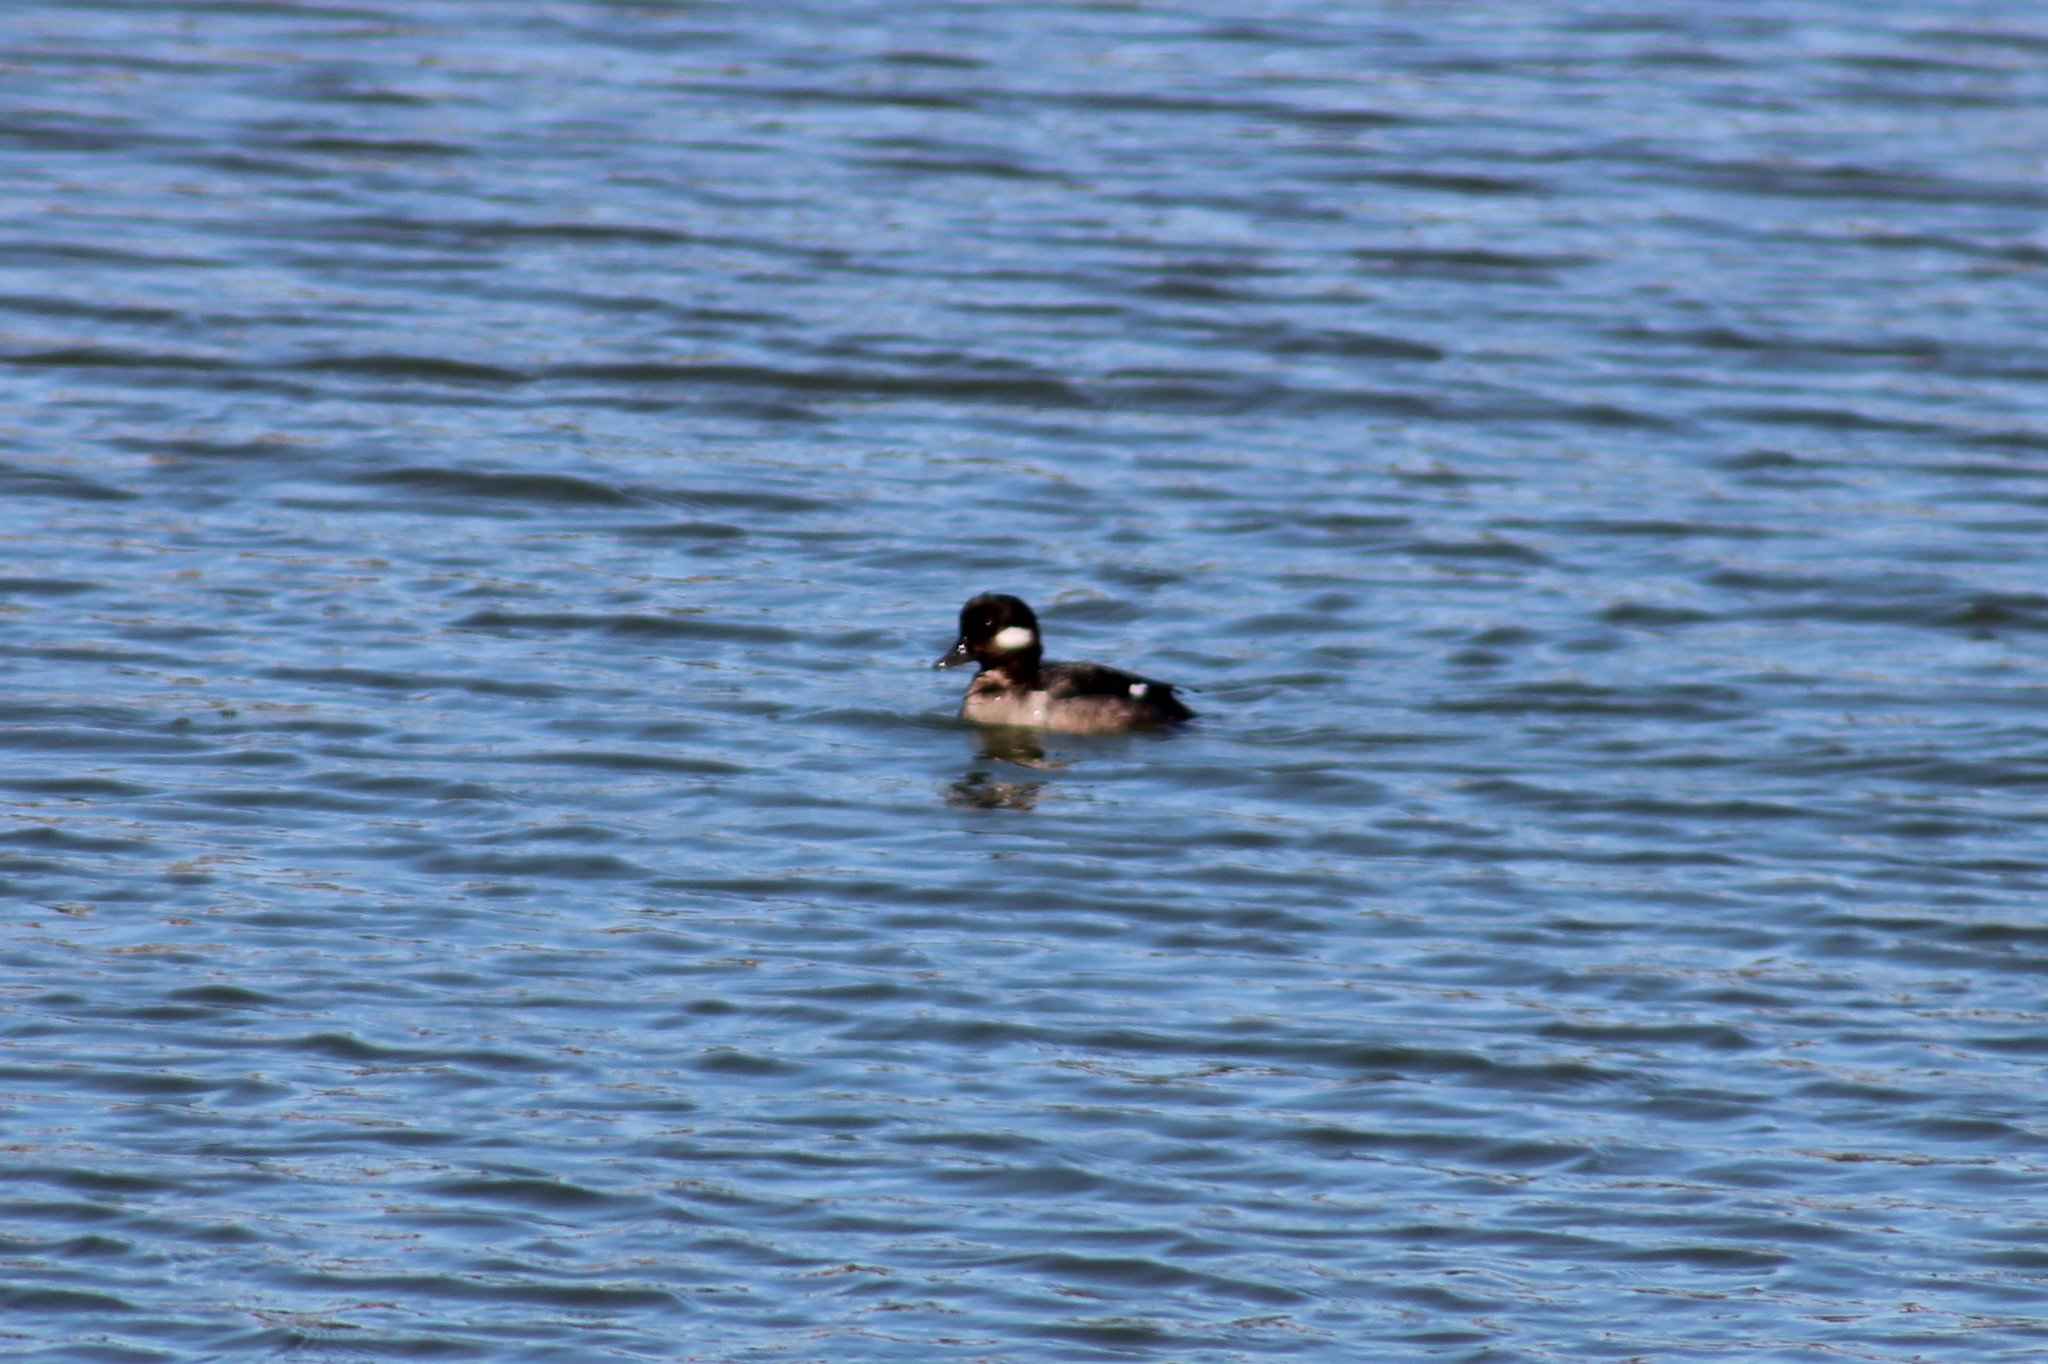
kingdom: Animalia
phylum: Chordata
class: Aves
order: Anseriformes
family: Anatidae
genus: Bucephala
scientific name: Bucephala albeola
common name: Bufflehead
